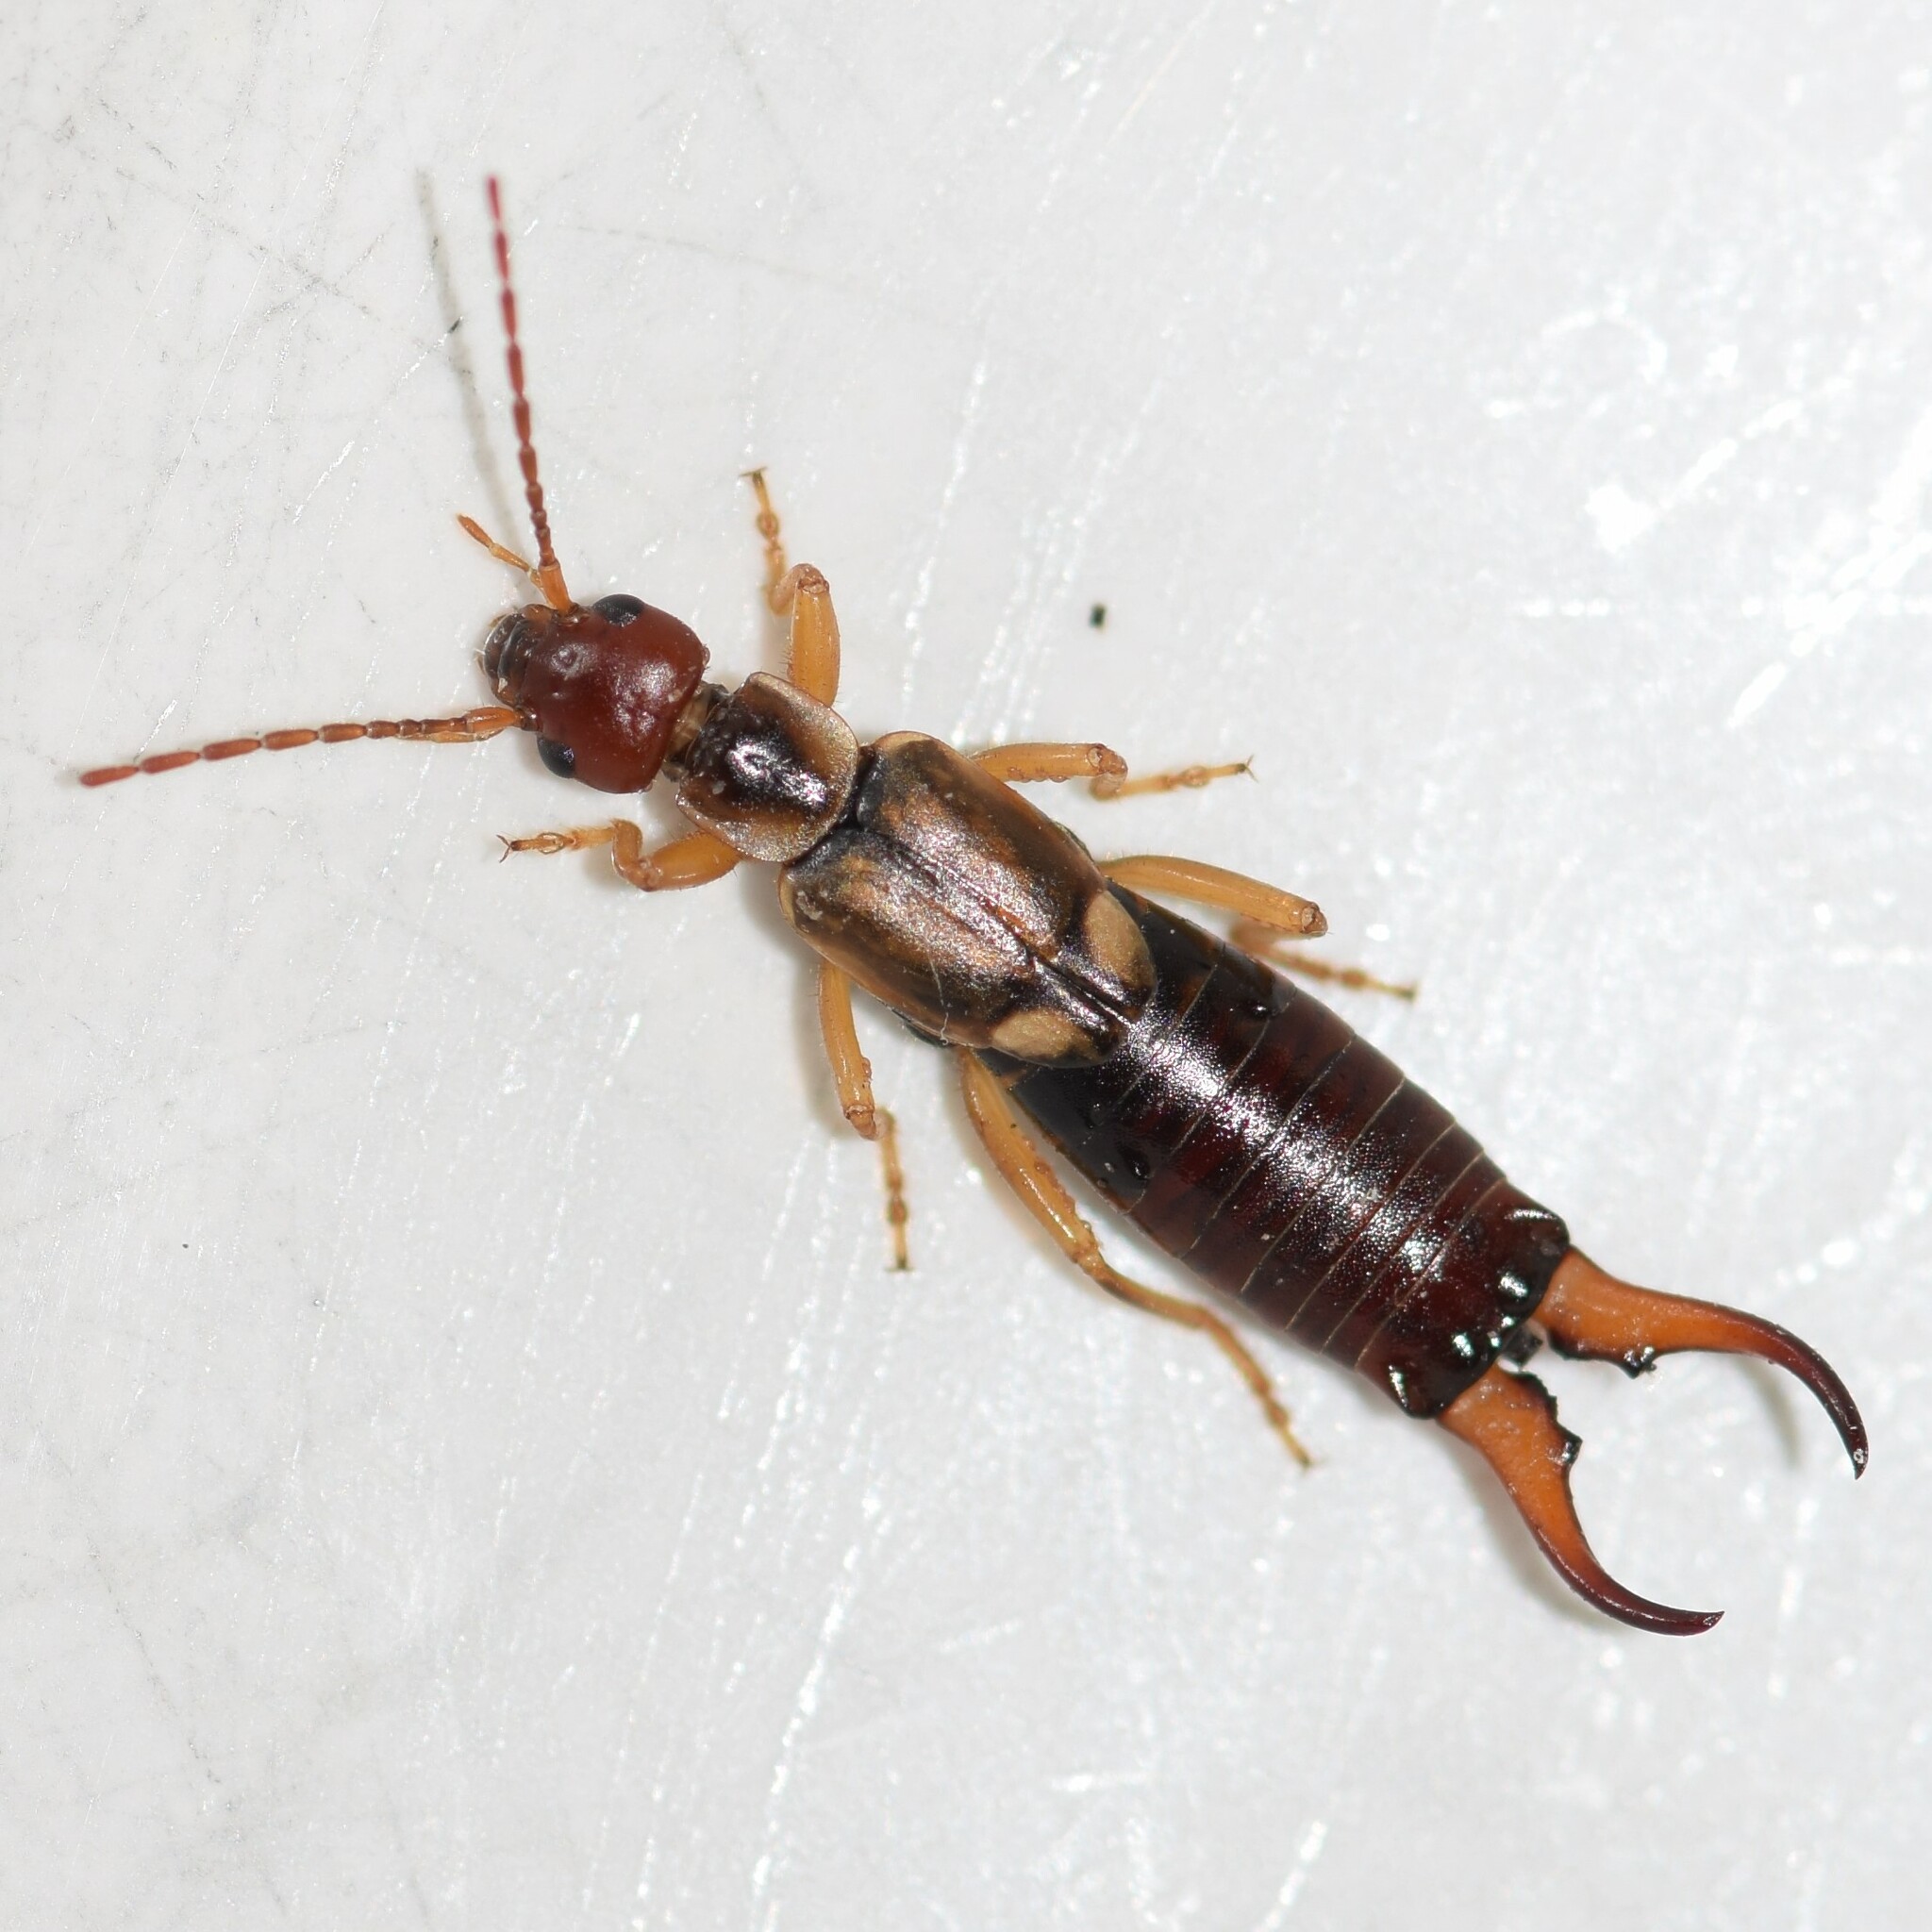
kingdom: Animalia
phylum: Arthropoda
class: Insecta
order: Dermaptera
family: Forficulidae
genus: Forficula
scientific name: Forficula
